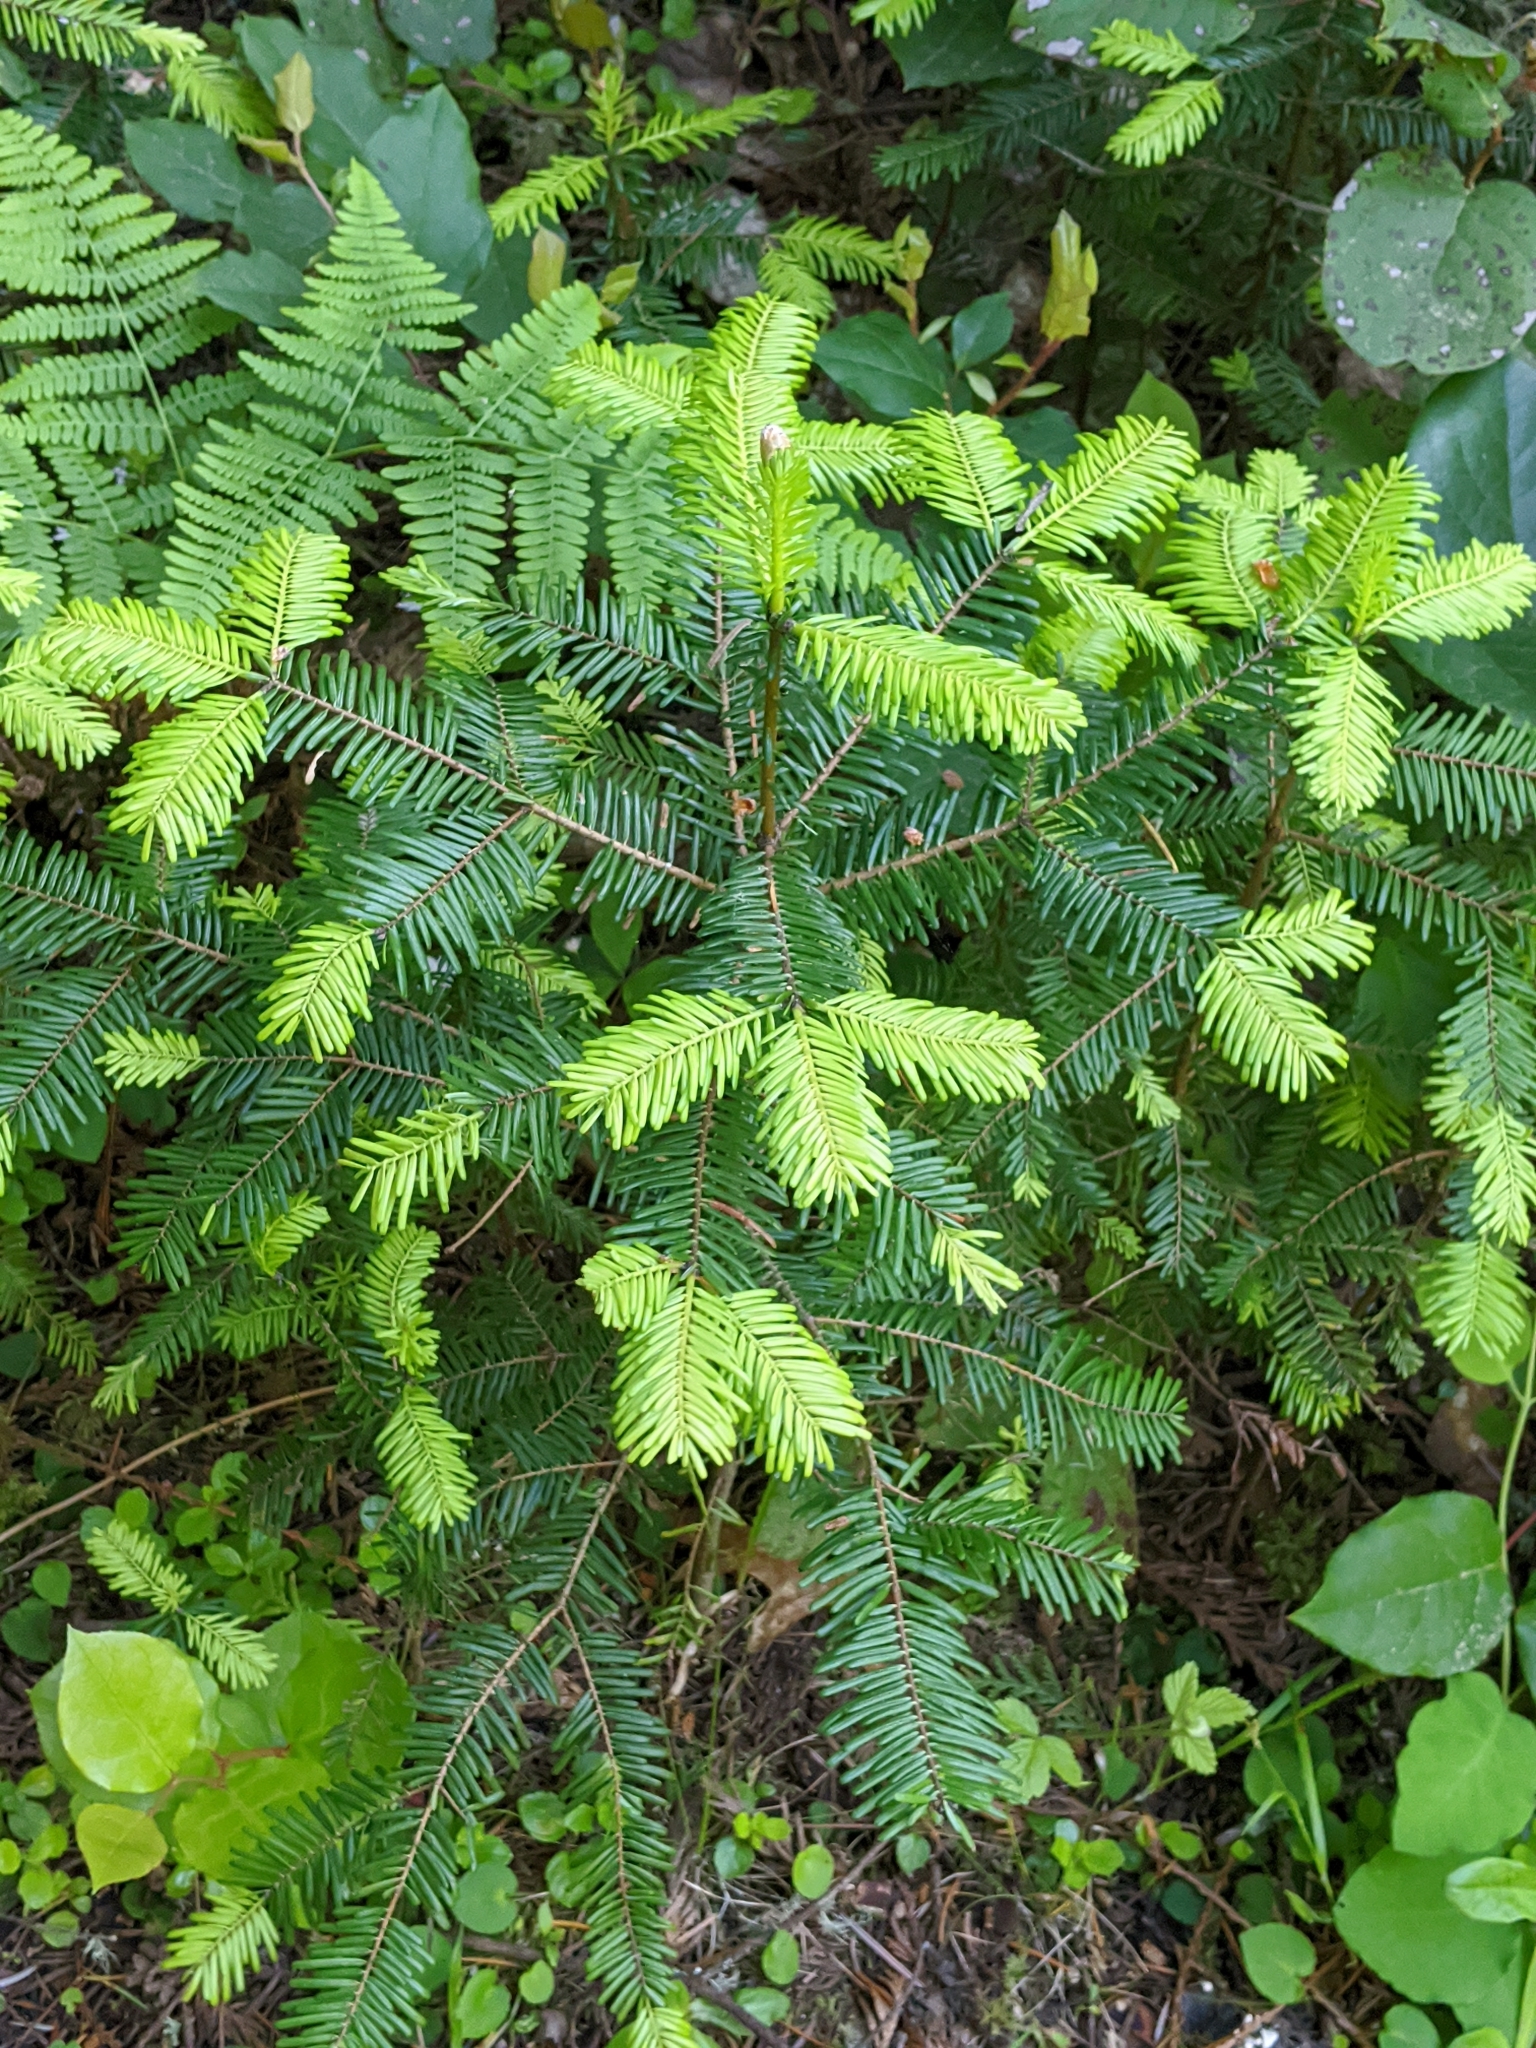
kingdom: Plantae
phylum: Tracheophyta
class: Pinopsida
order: Pinales
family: Pinaceae
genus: Abies
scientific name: Abies grandis
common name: Giant fir
